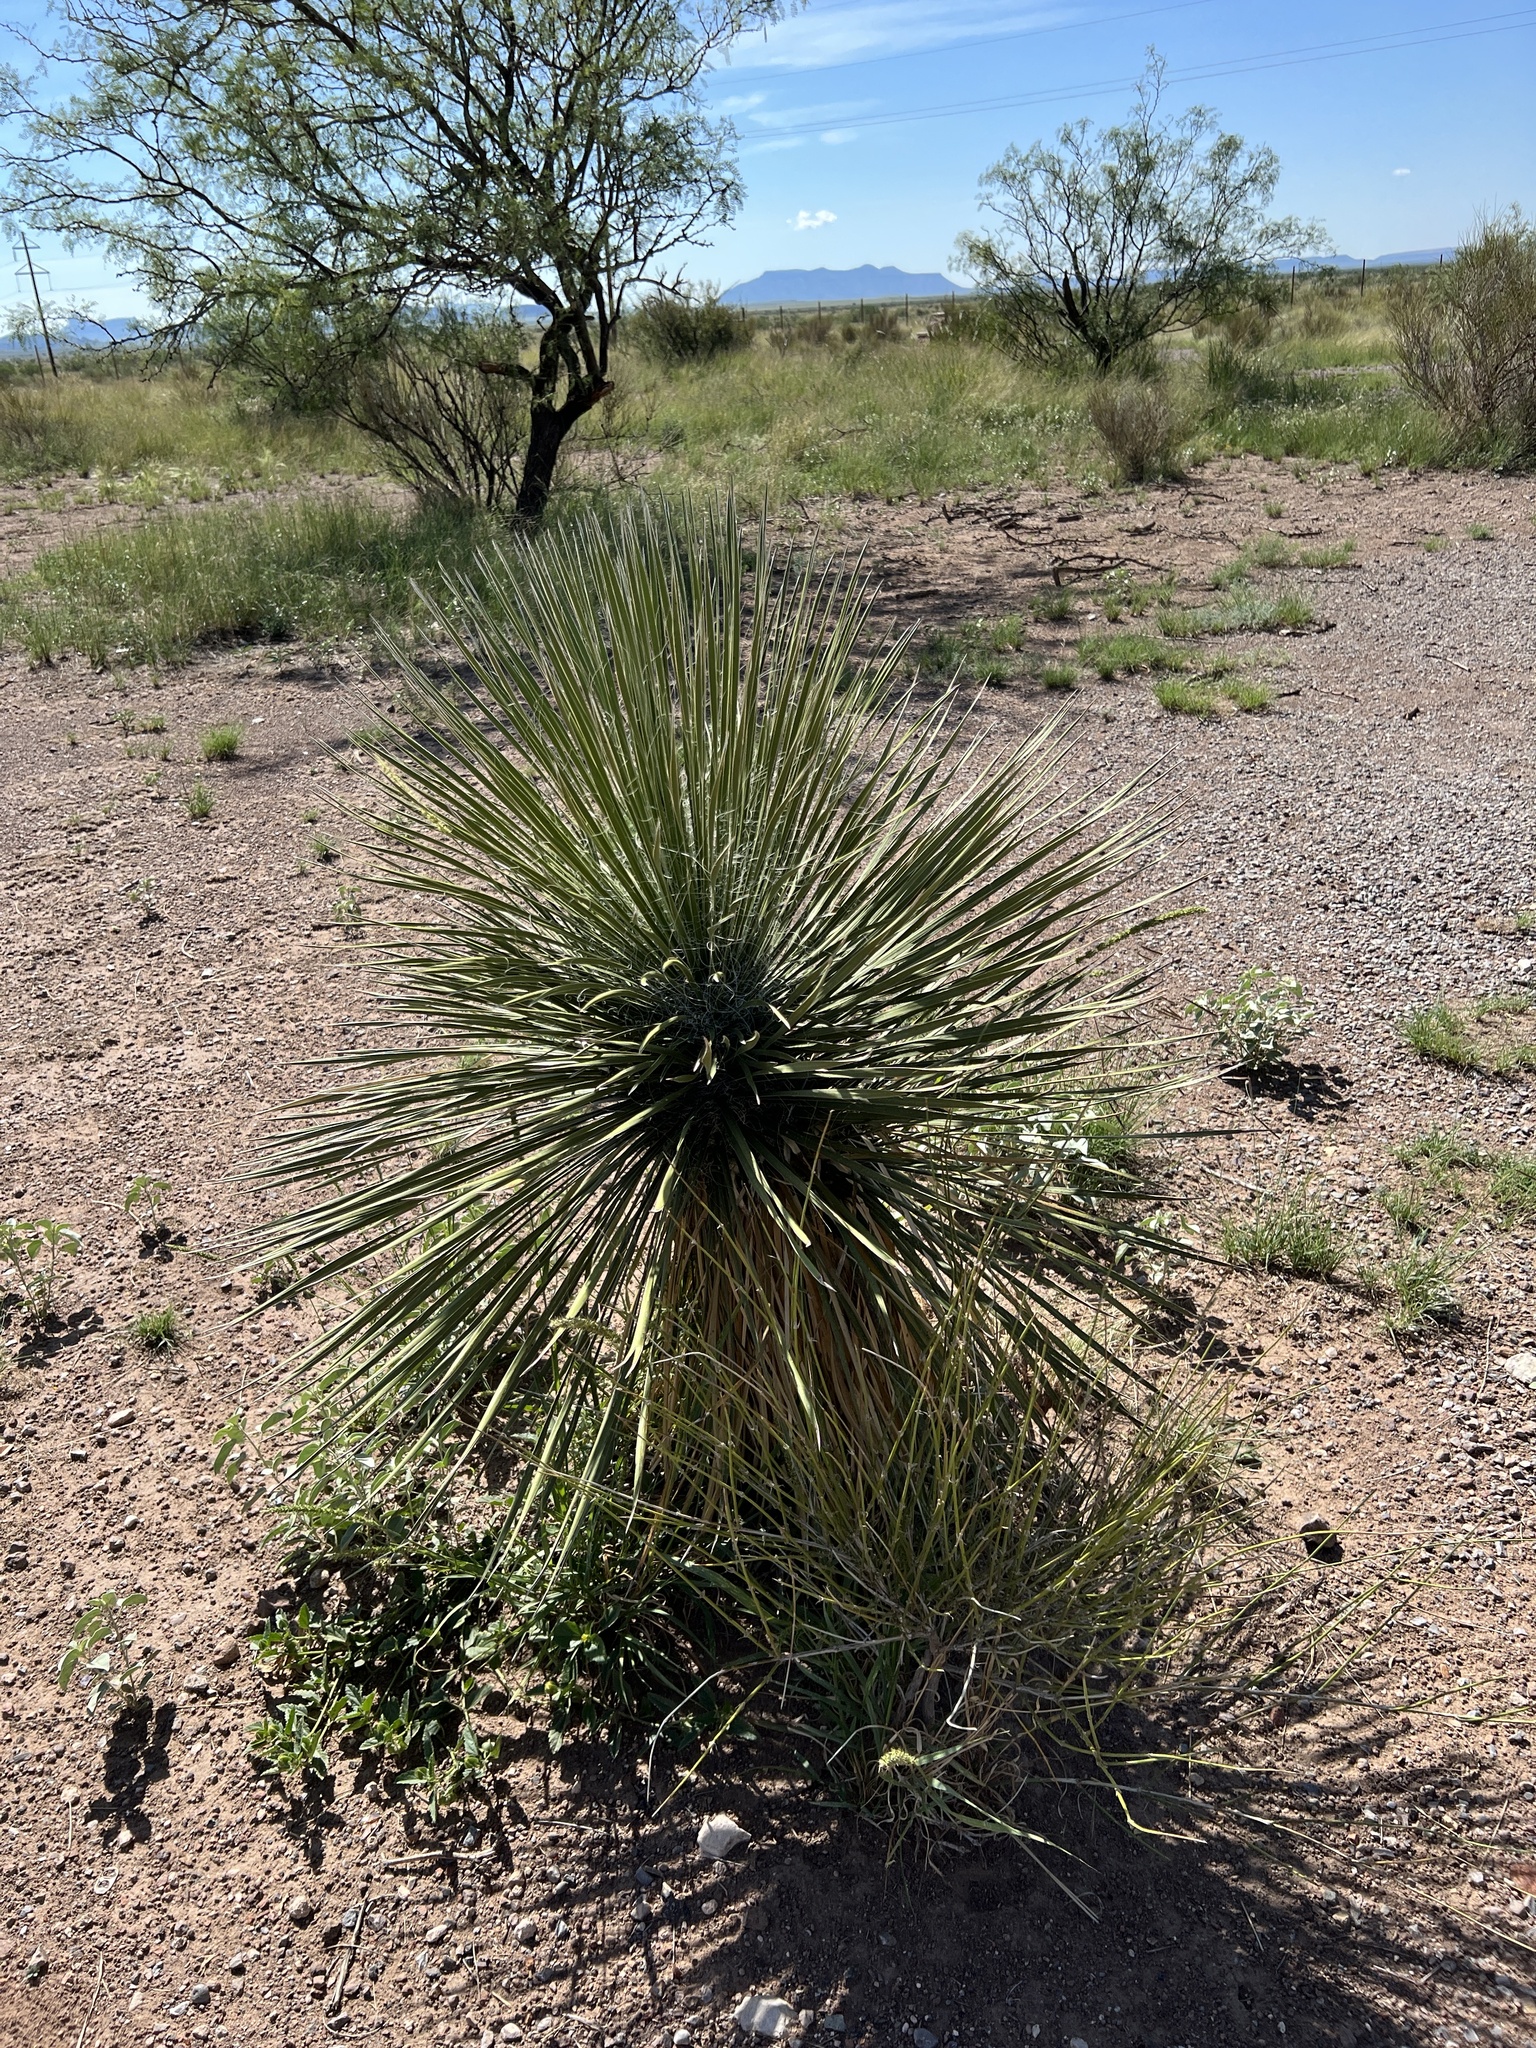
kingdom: Plantae
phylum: Tracheophyta
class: Liliopsida
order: Asparagales
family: Asparagaceae
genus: Yucca
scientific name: Yucca elata
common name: Palmella
